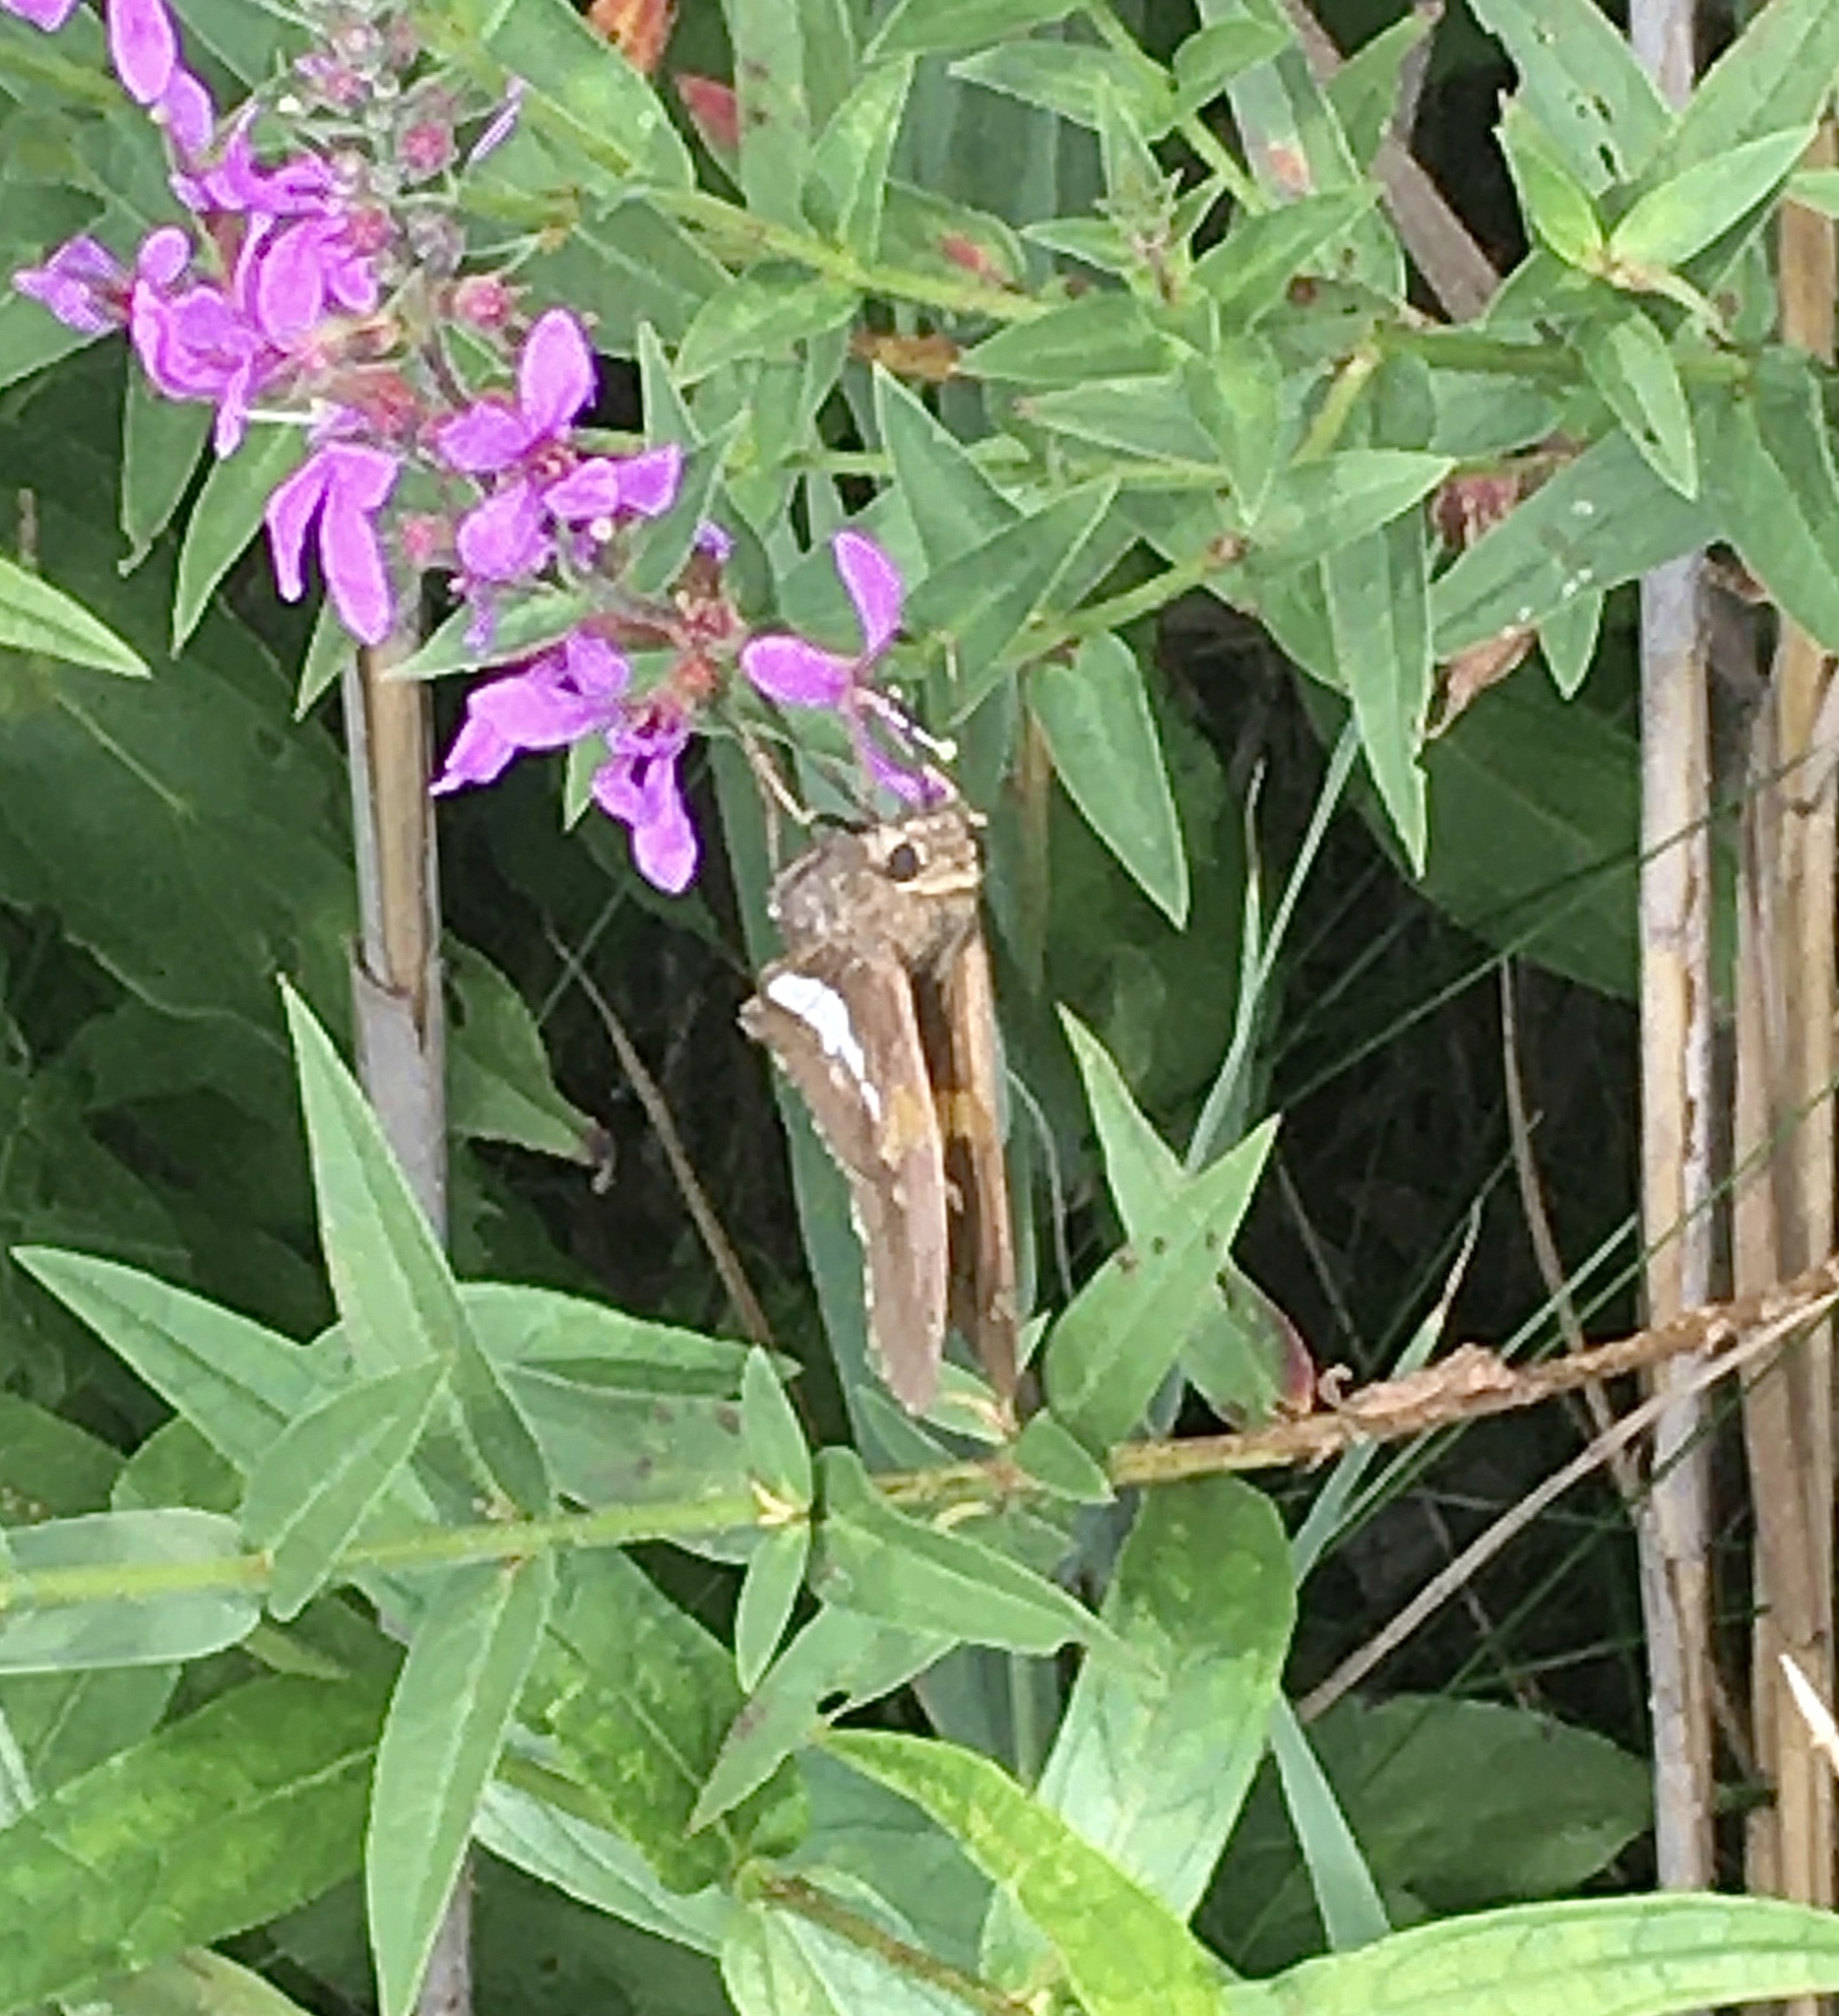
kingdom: Animalia
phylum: Arthropoda
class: Insecta
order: Lepidoptera
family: Hesperiidae
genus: Epargyreus
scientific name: Epargyreus clarus
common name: Silver-spotted skipper
